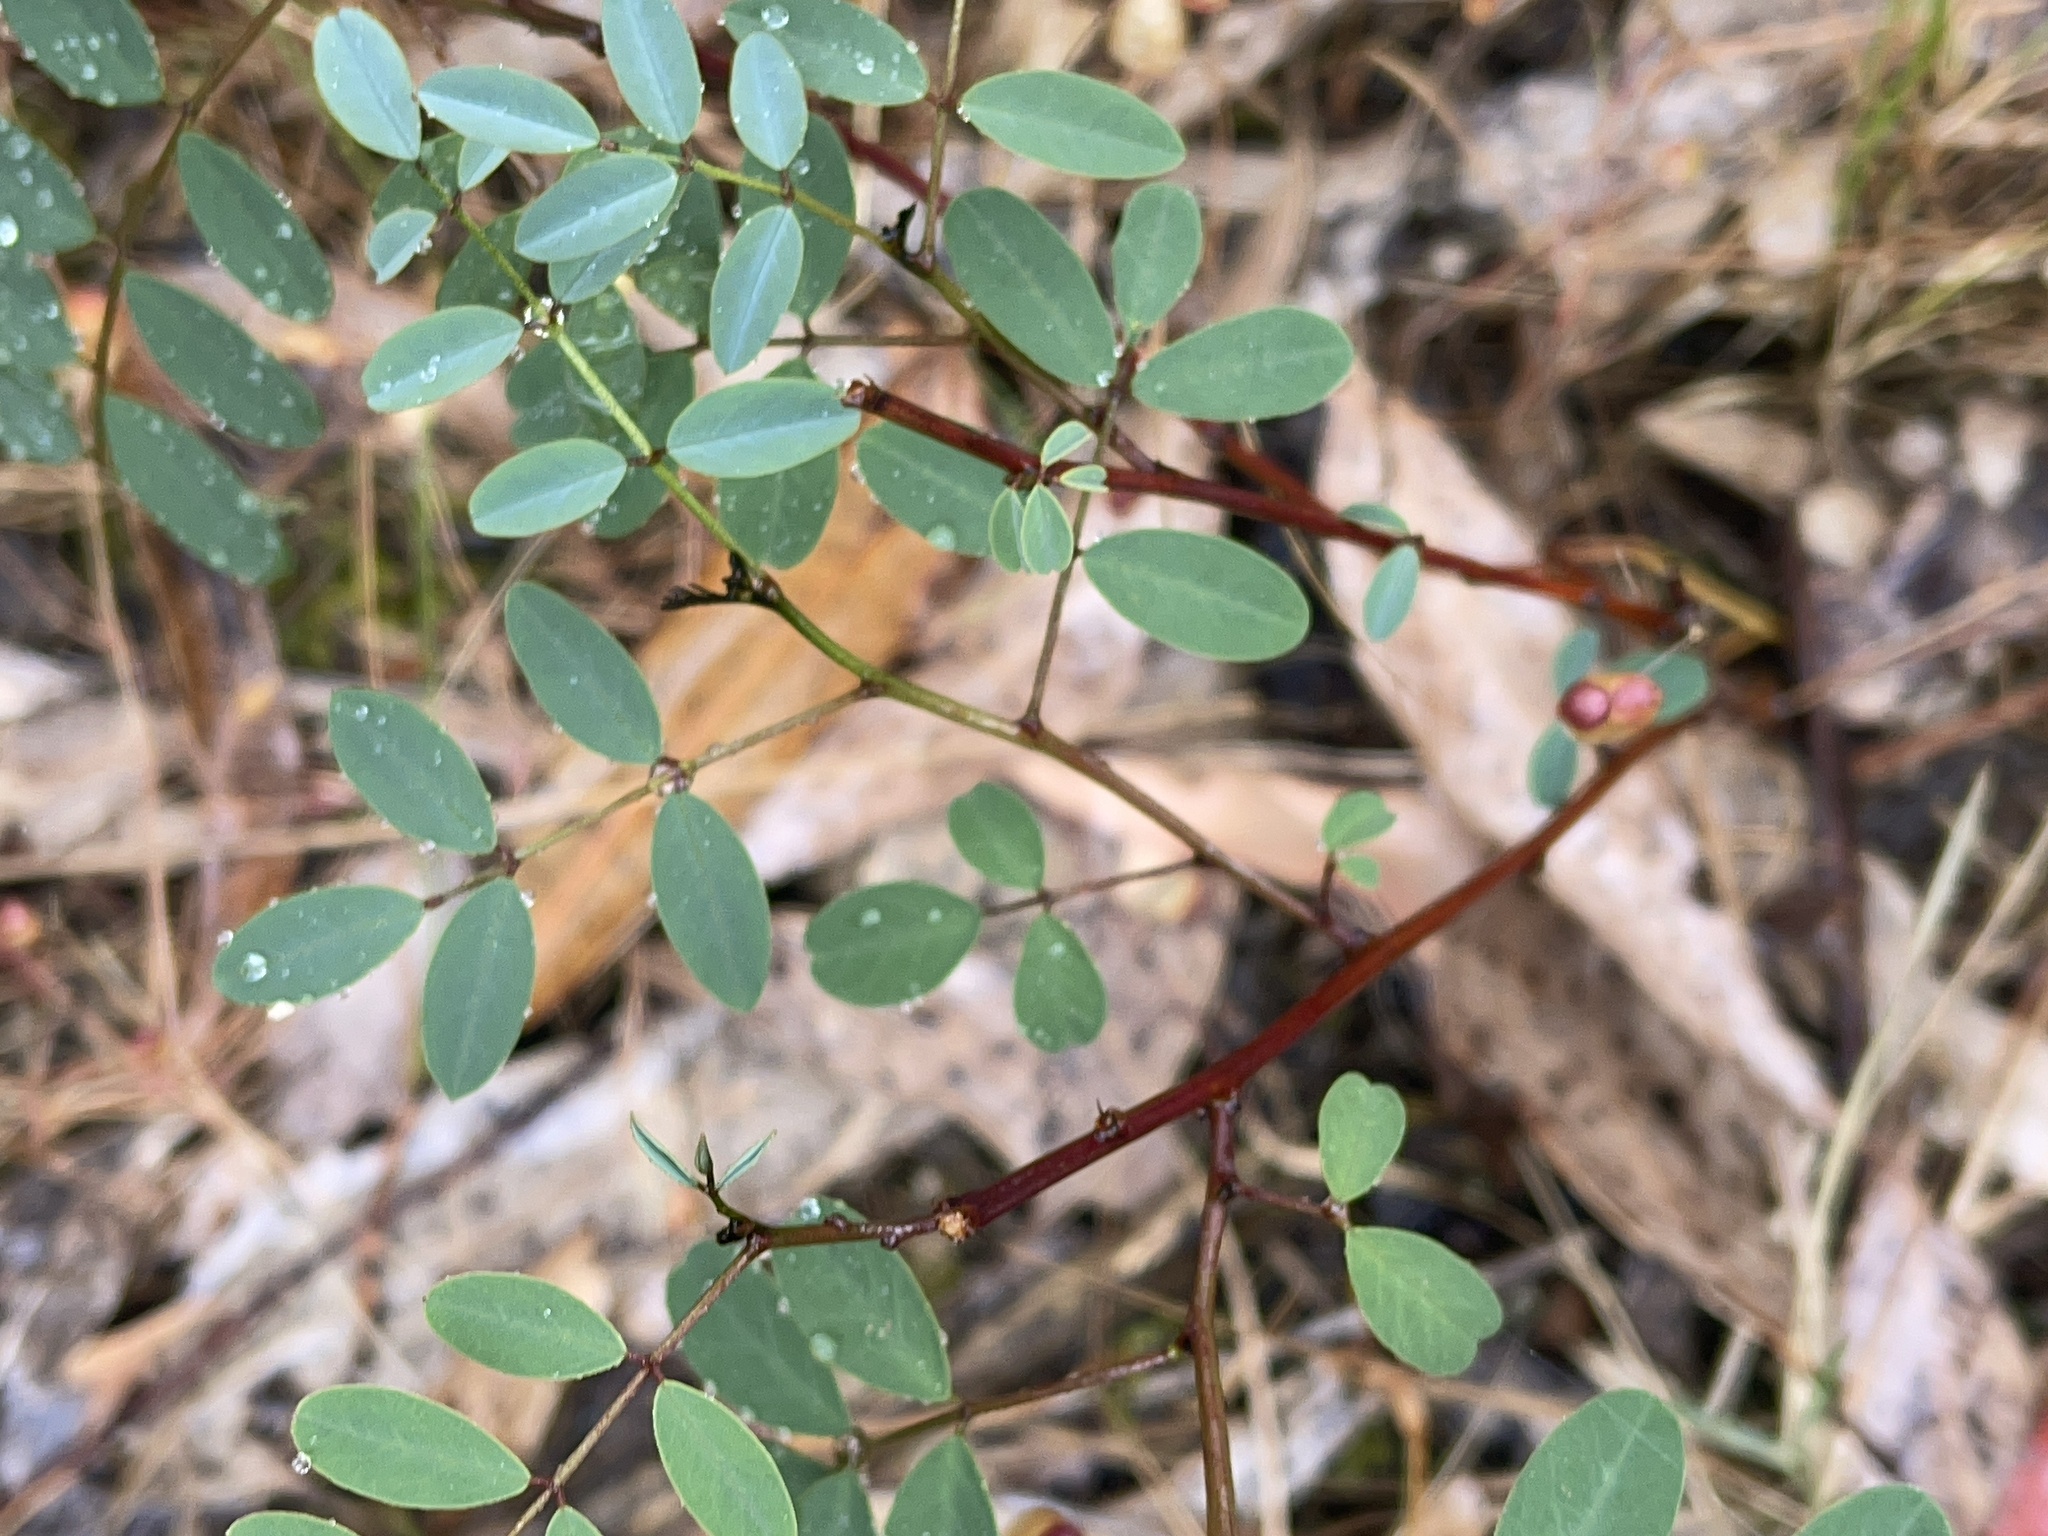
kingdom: Plantae
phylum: Tracheophyta
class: Magnoliopsida
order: Fabales
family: Fabaceae
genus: Indigofera
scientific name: Indigofera australis
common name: Australian indigo
